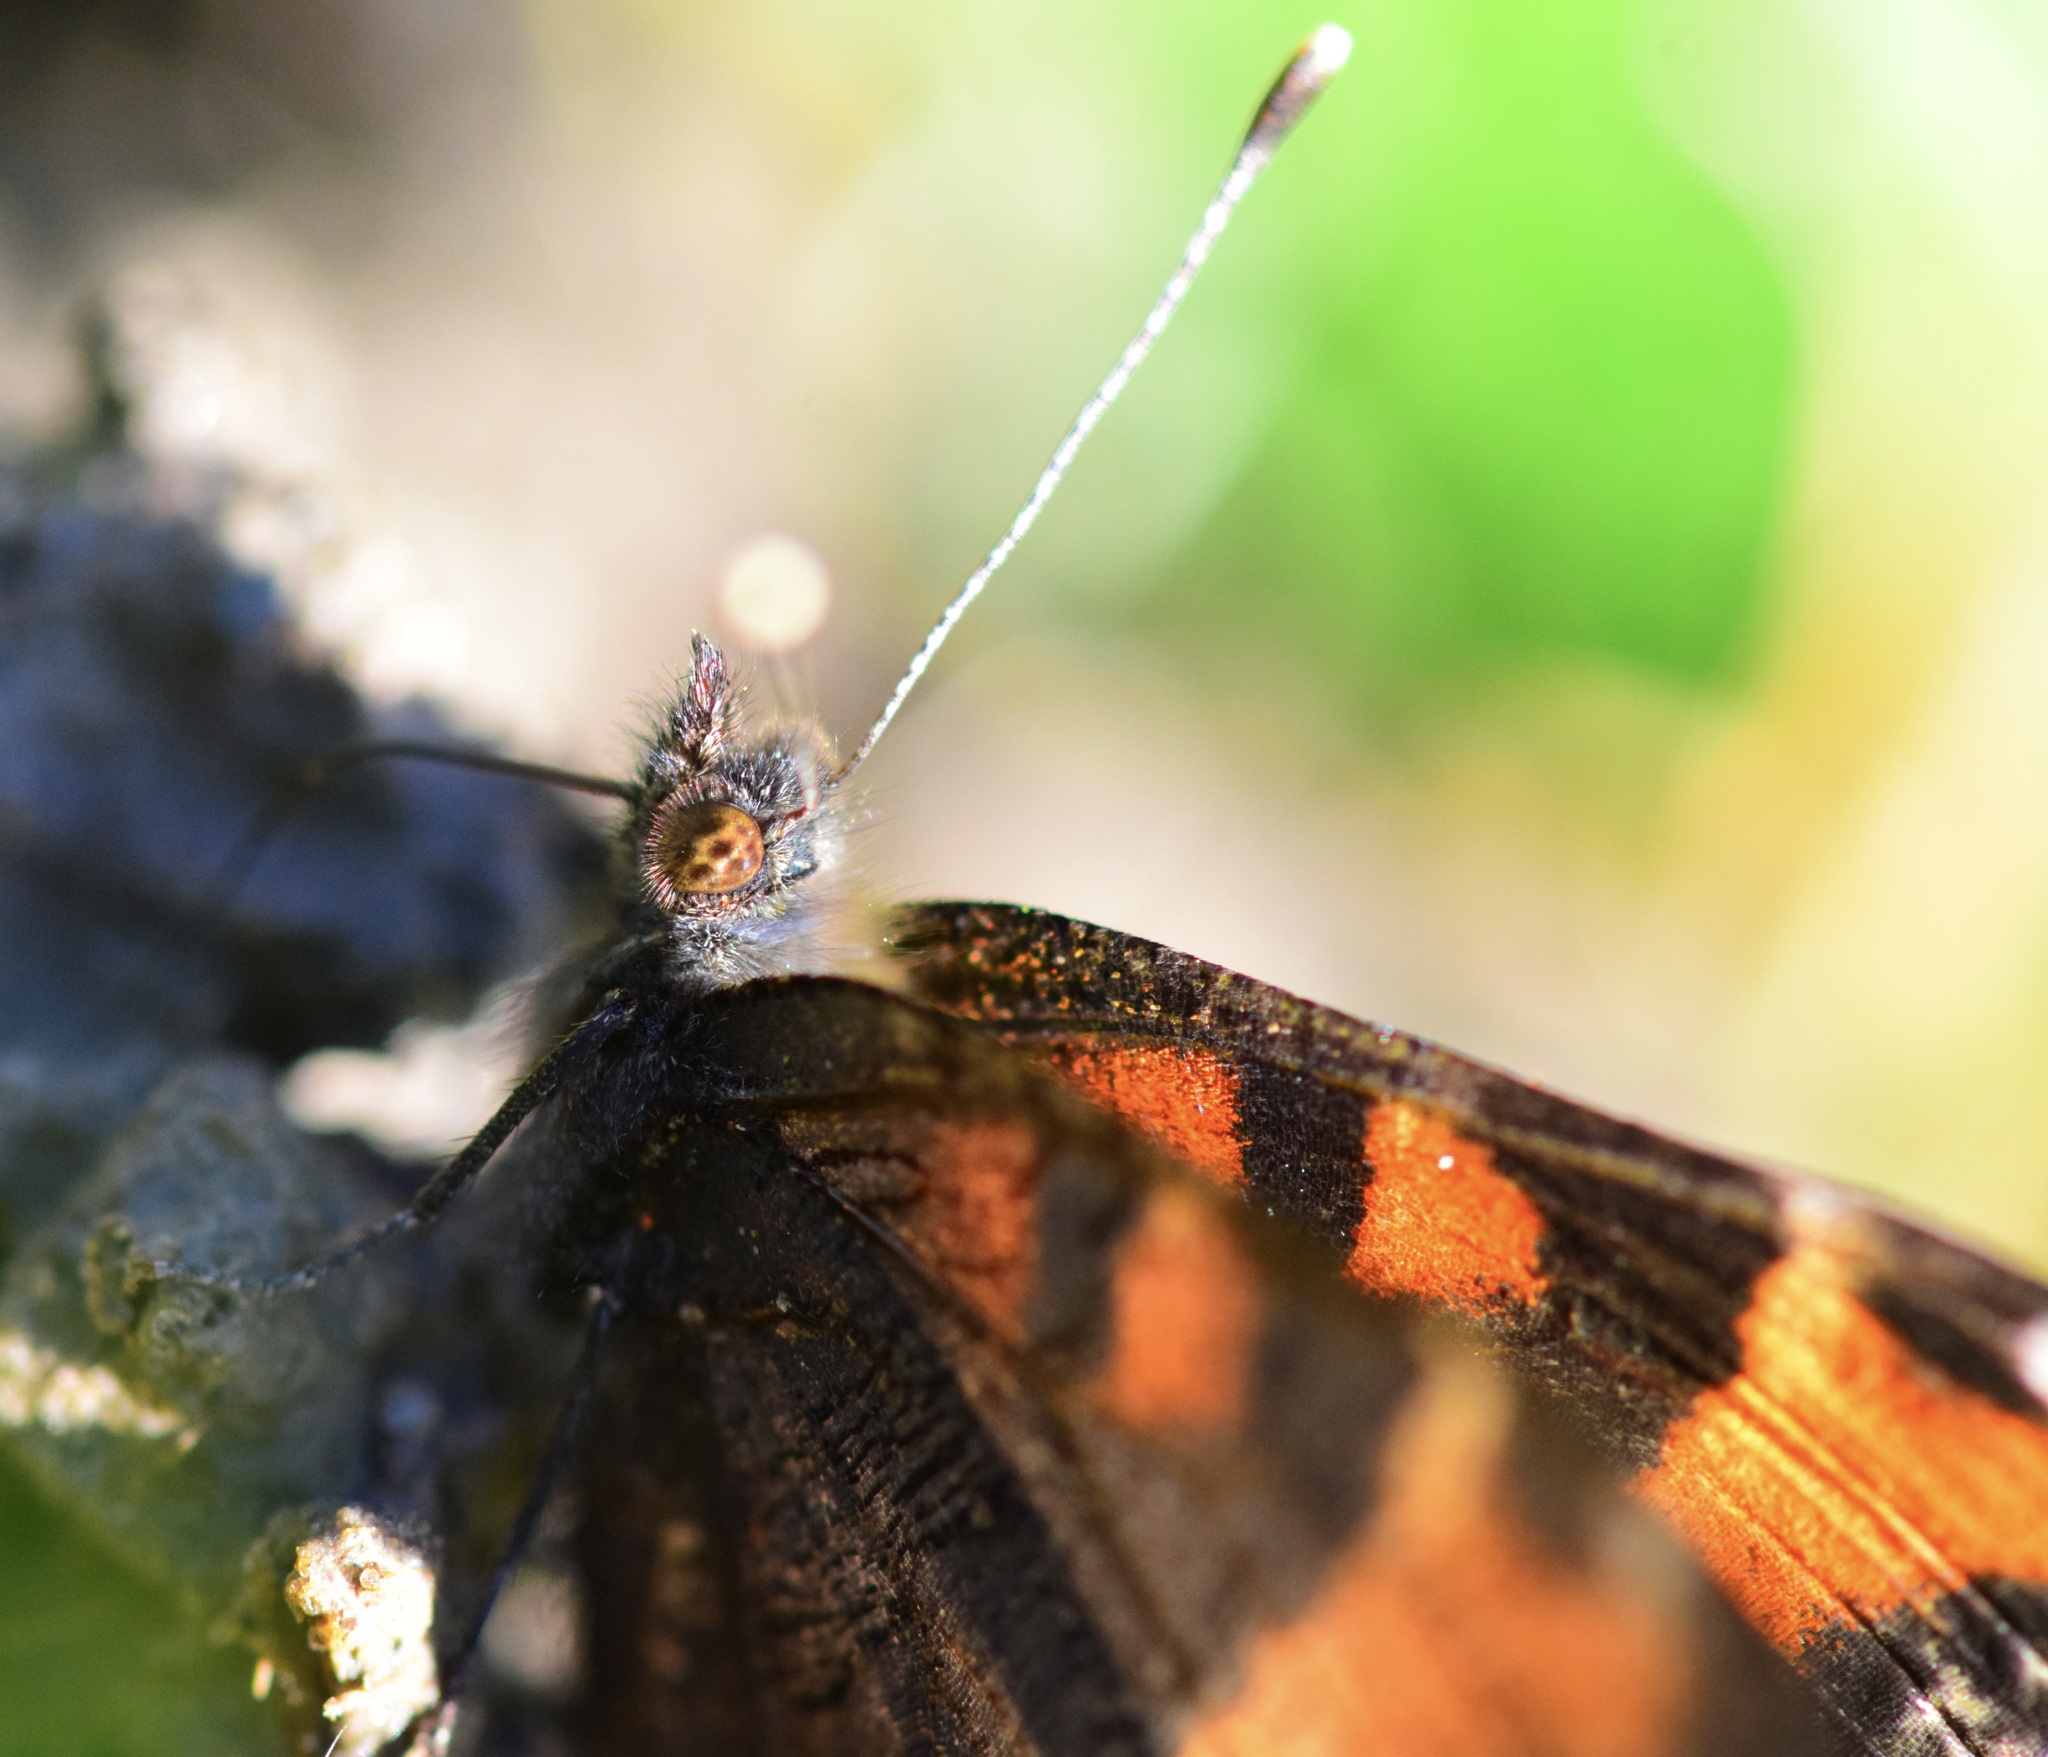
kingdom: Animalia
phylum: Arthropoda
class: Insecta
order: Lepidoptera
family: Nymphalidae
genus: Aglais
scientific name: Aglais milberti
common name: Milbert's tortoiseshell
